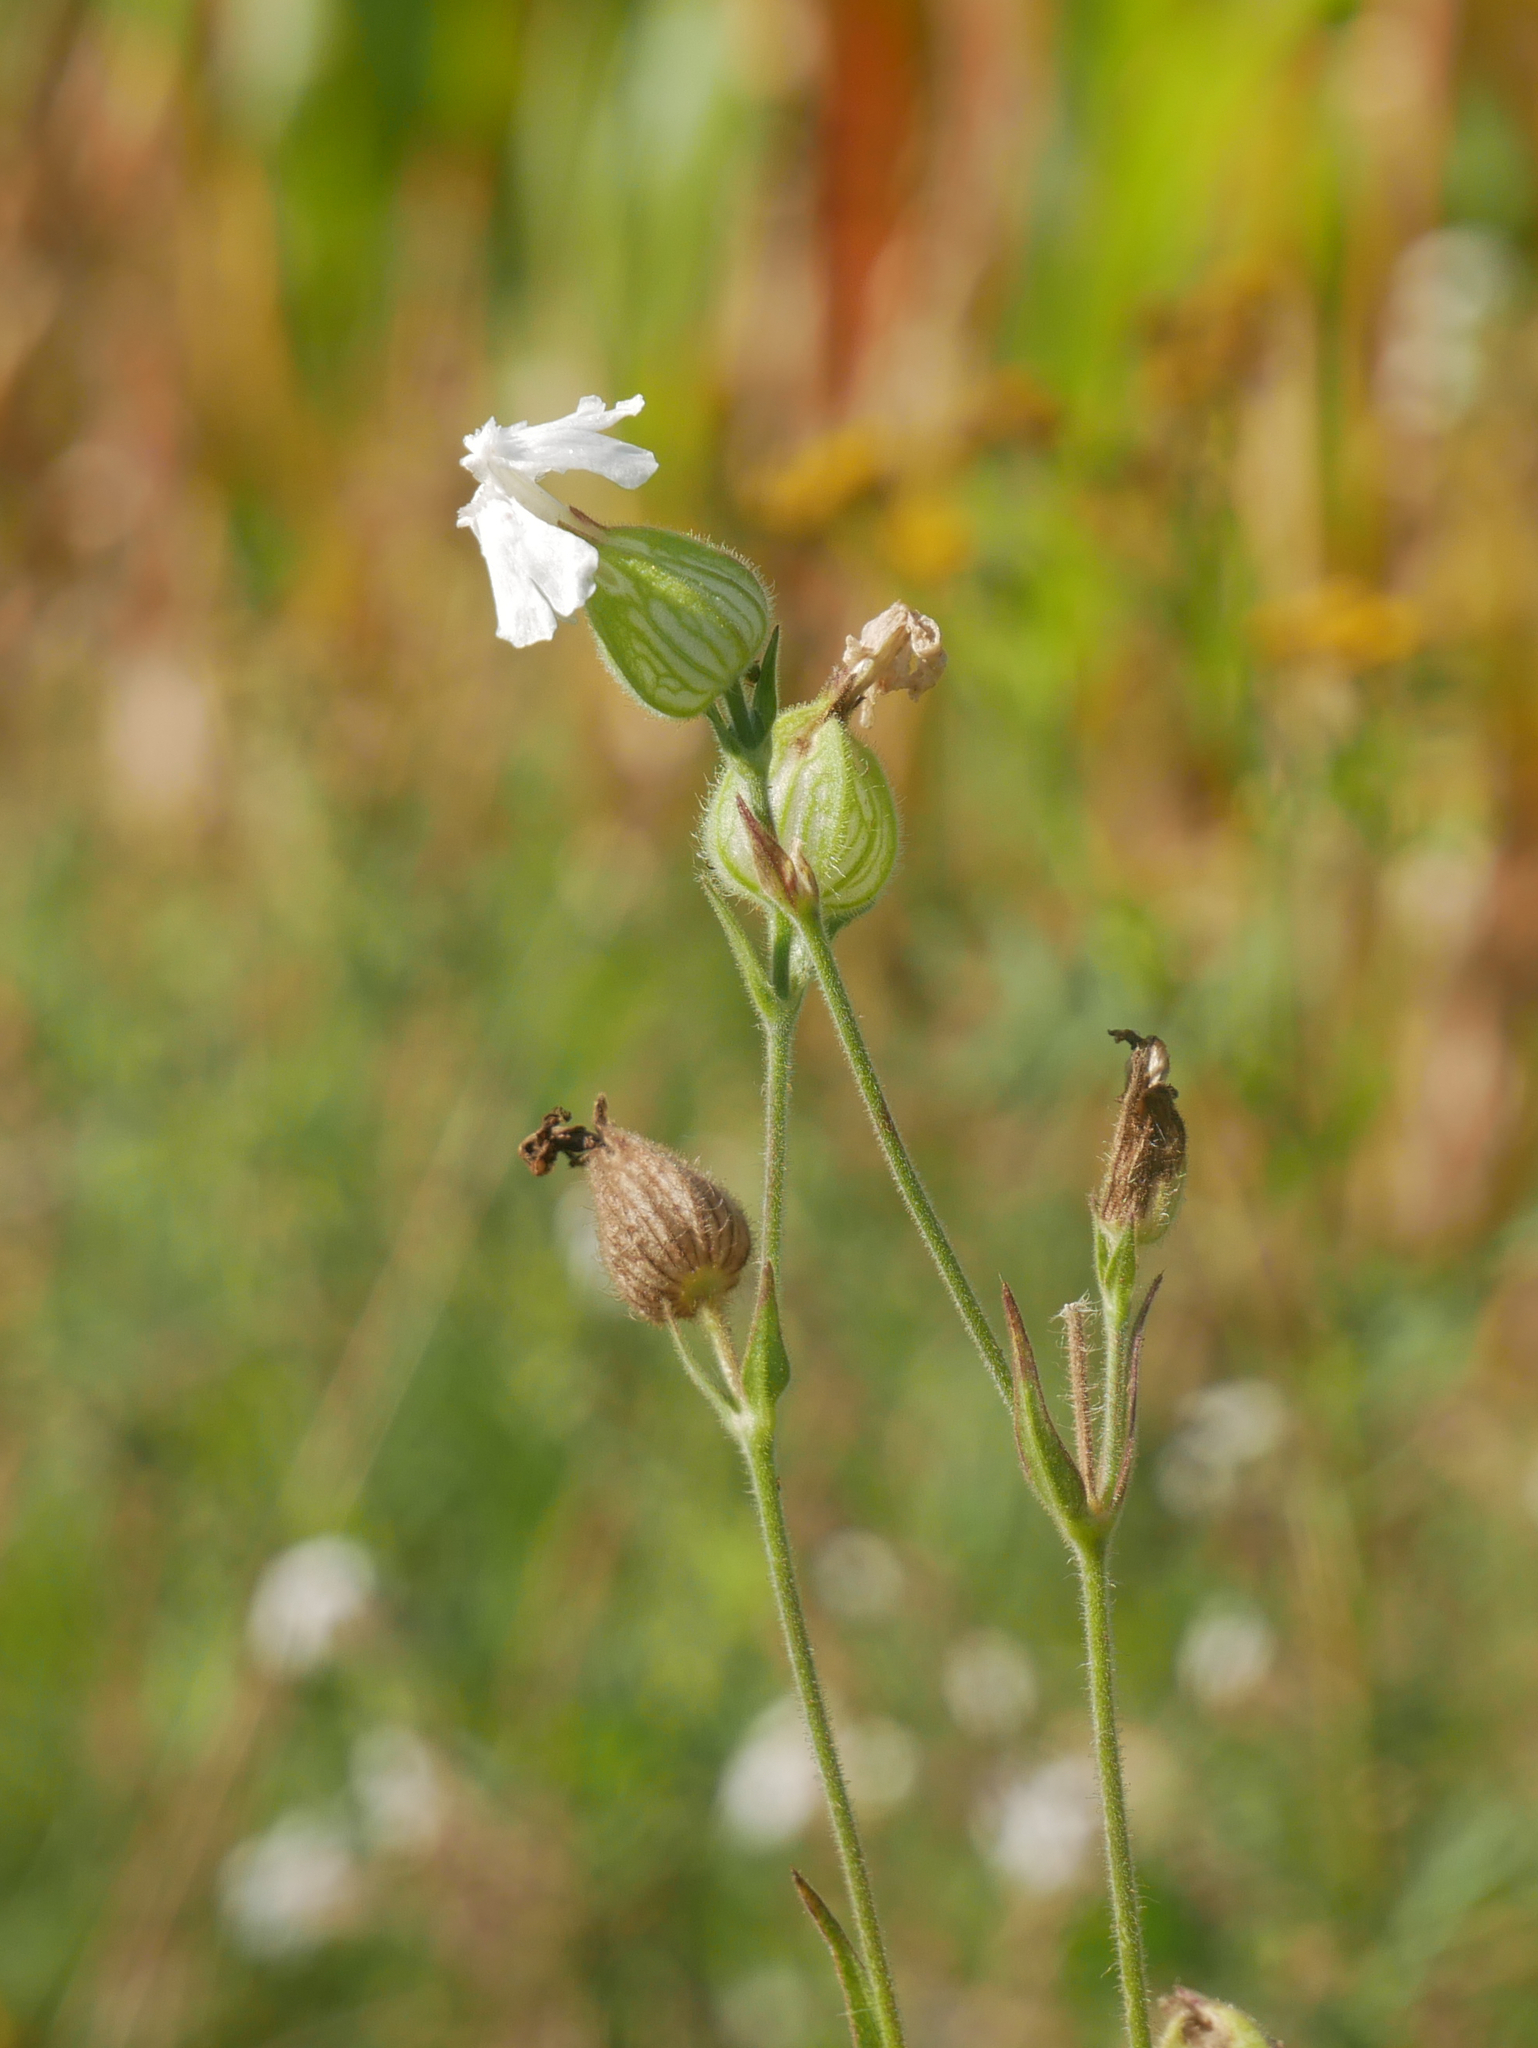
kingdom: Plantae
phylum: Tracheophyta
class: Magnoliopsida
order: Caryophyllales
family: Caryophyllaceae
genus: Silene
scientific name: Silene latifolia
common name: White campion
